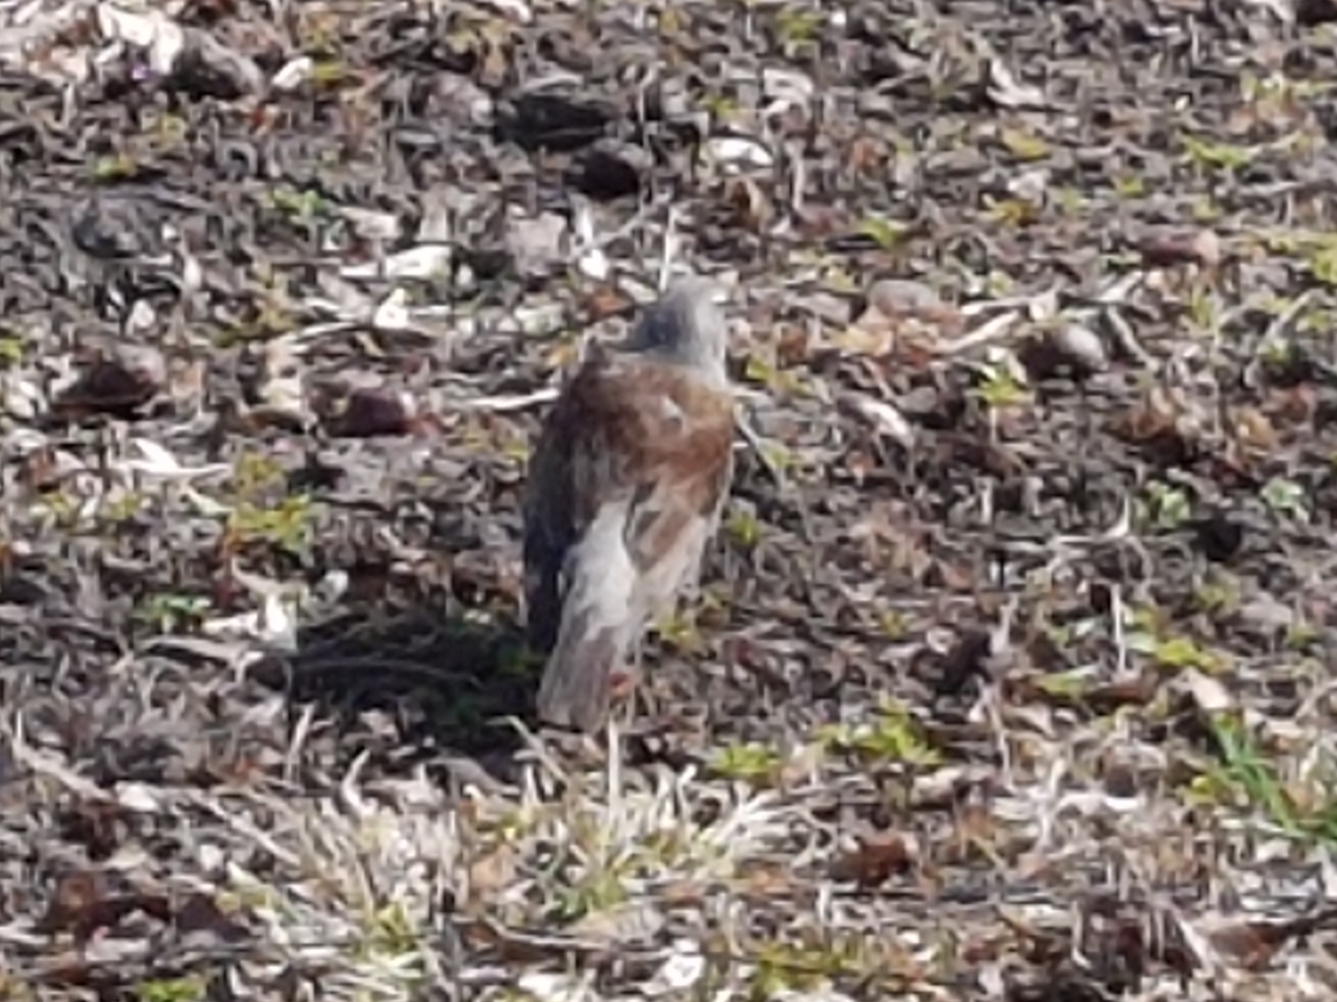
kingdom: Animalia
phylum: Chordata
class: Aves
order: Passeriformes
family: Turdidae
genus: Turdus
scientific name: Turdus pilaris
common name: Fieldfare
